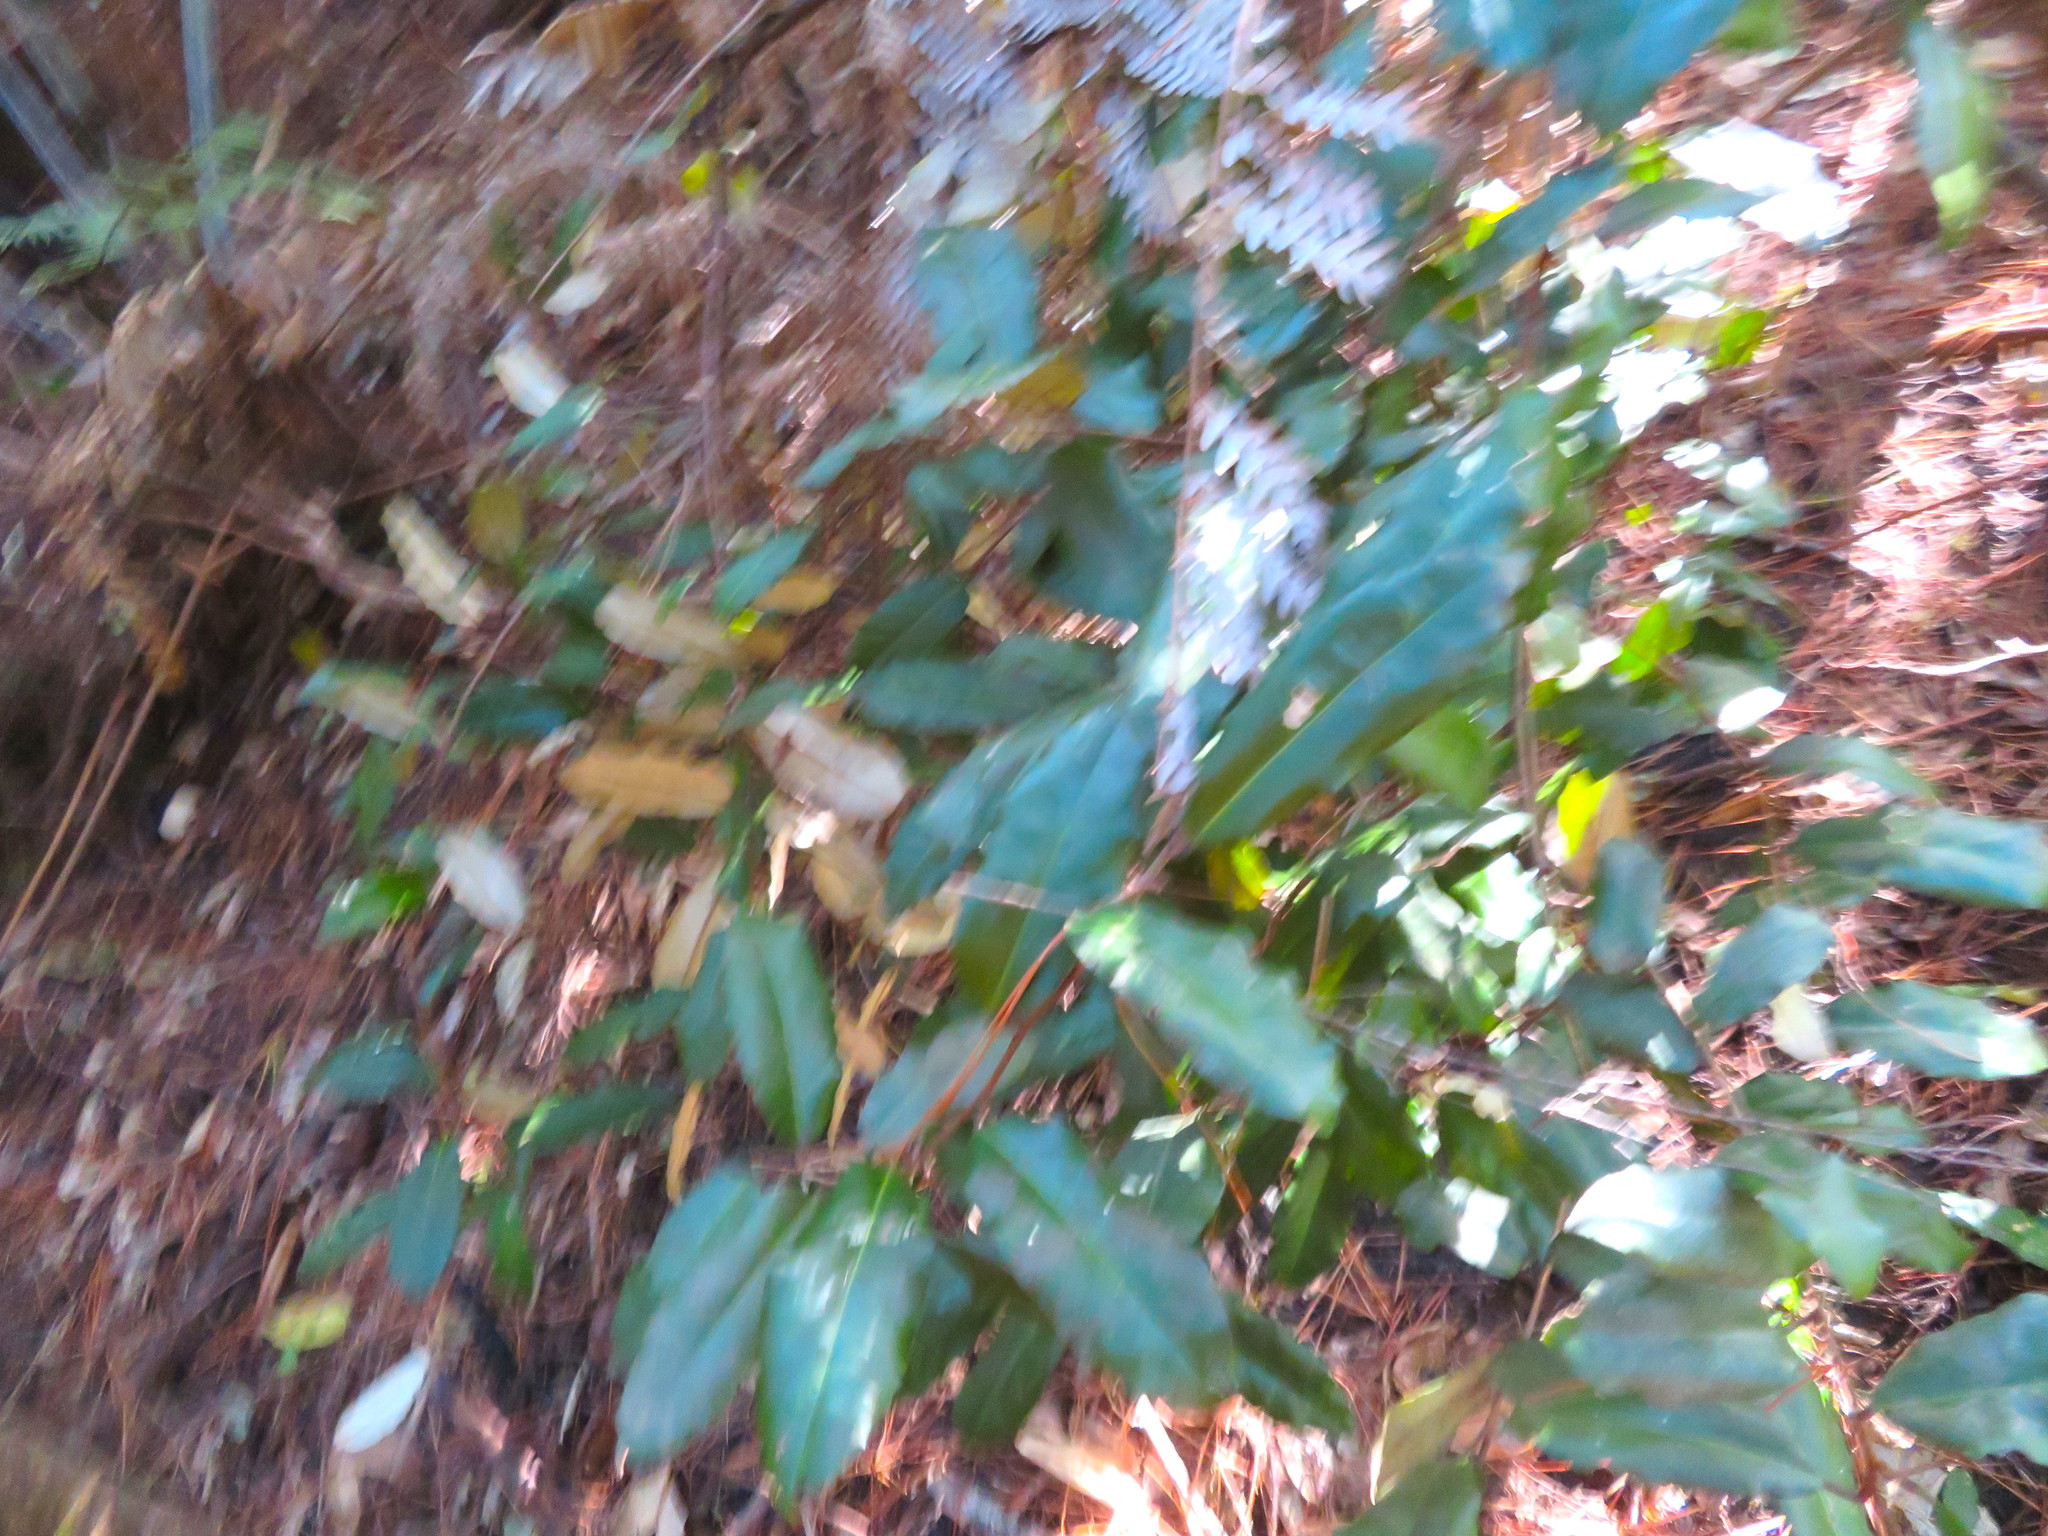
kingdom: Plantae
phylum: Tracheophyta
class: Magnoliopsida
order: Rosales
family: Elaeagnaceae
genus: Elaeagnus
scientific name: Elaeagnus reflexa
